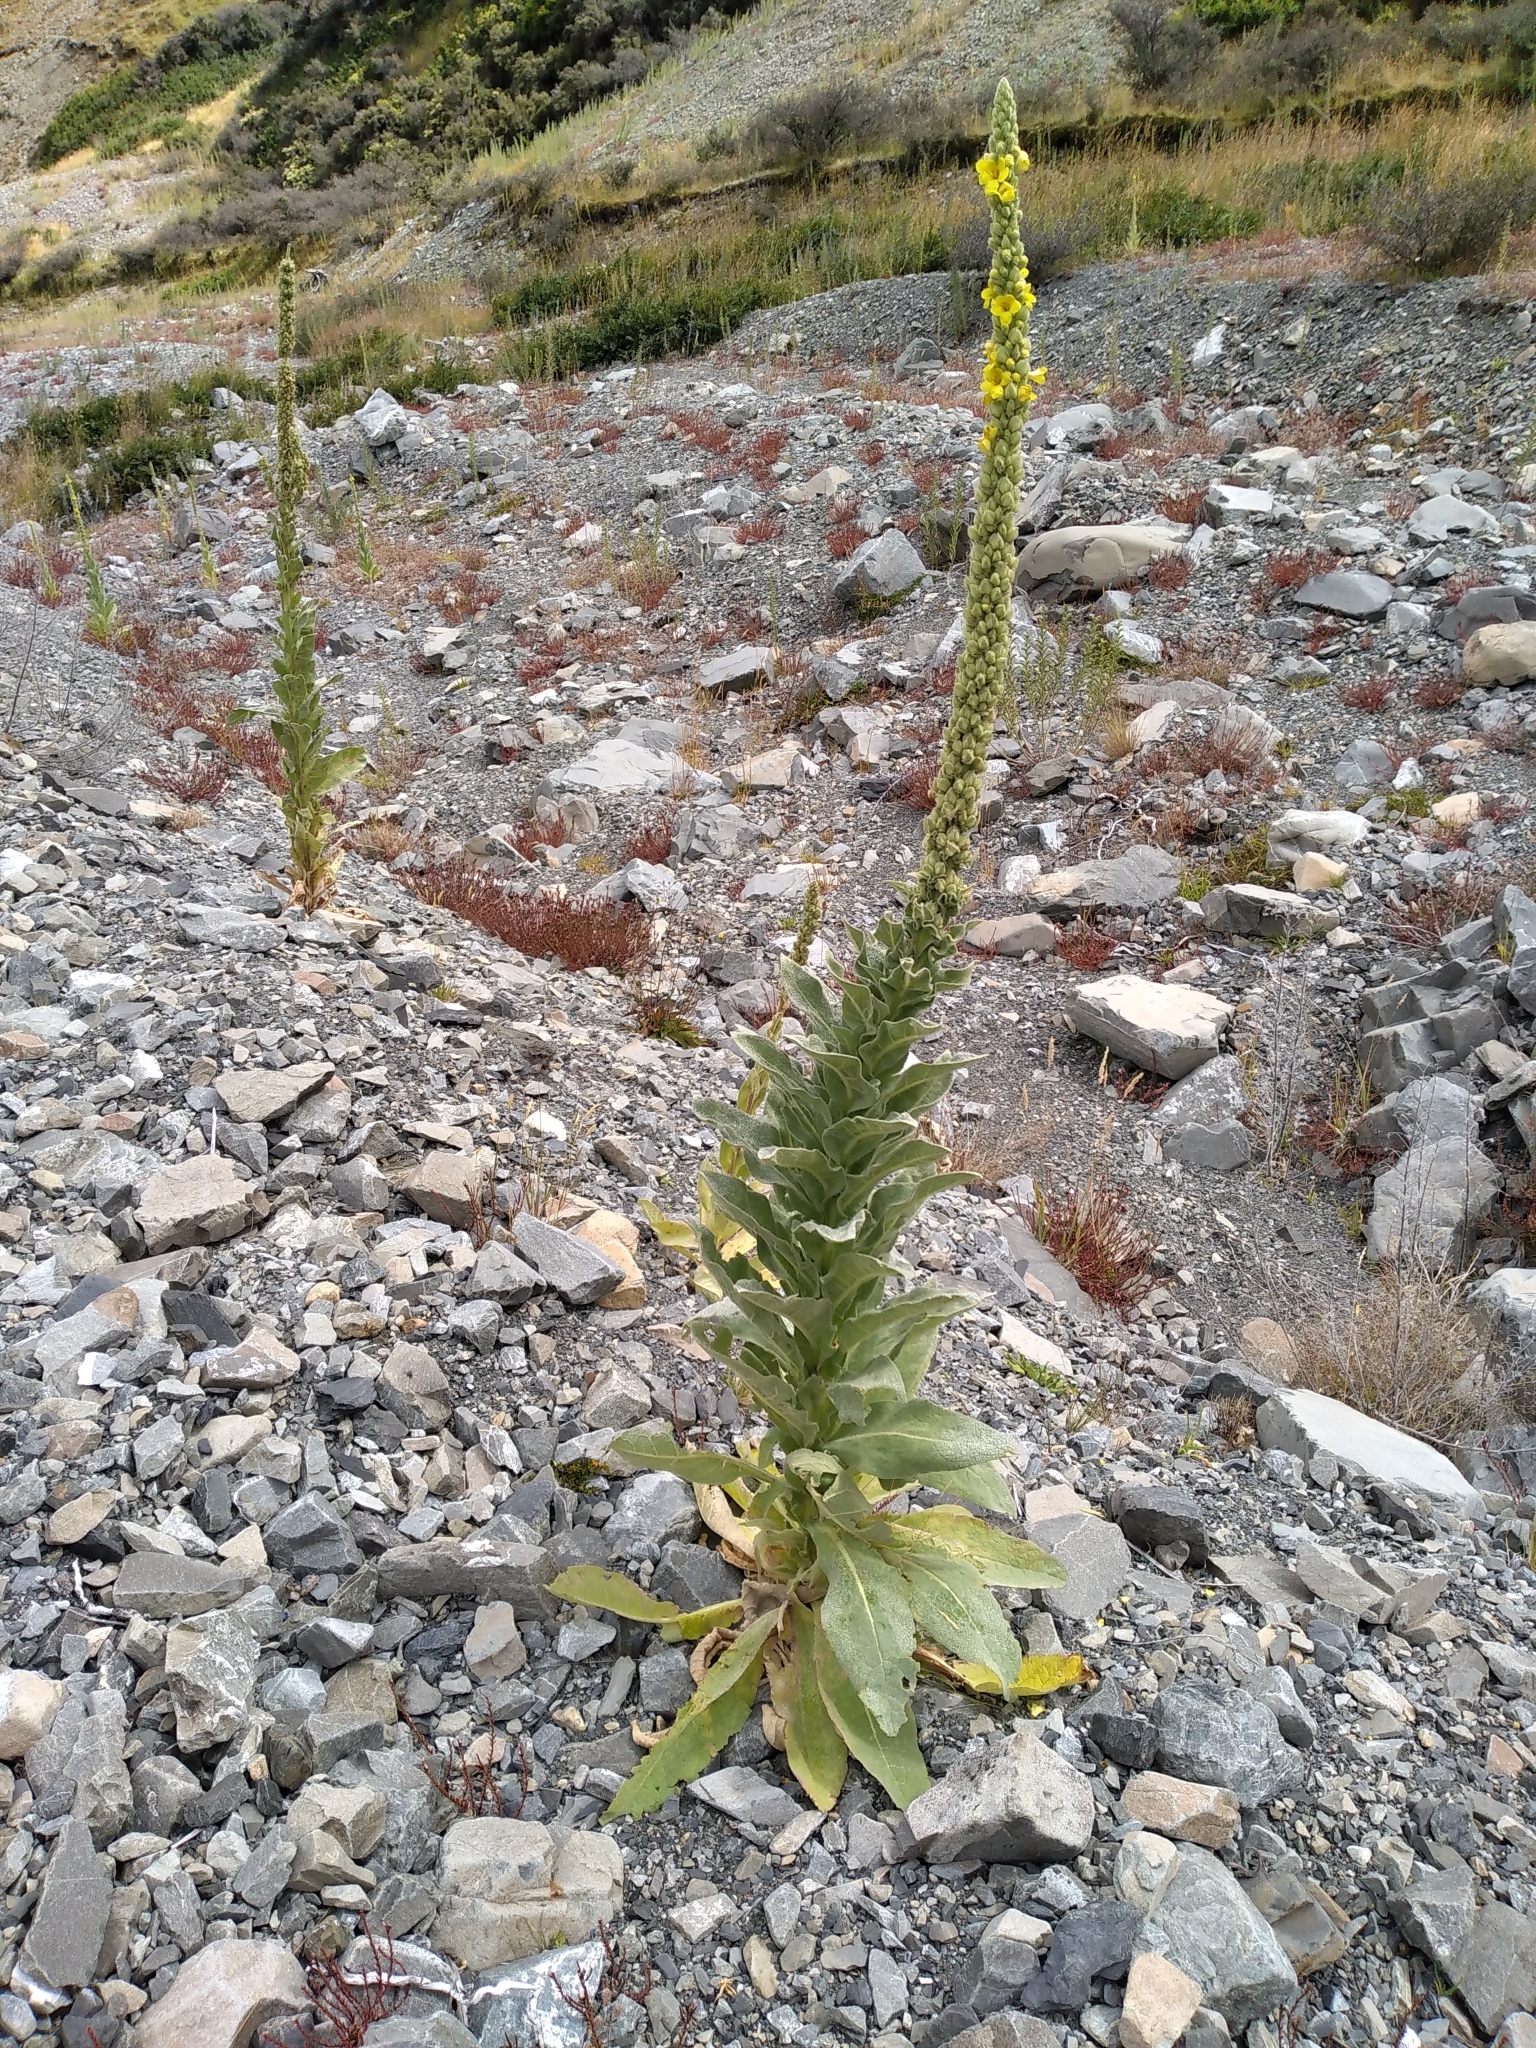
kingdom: Plantae
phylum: Tracheophyta
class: Magnoliopsida
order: Lamiales
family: Scrophulariaceae
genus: Verbascum
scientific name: Verbascum thapsus
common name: Common mullein
